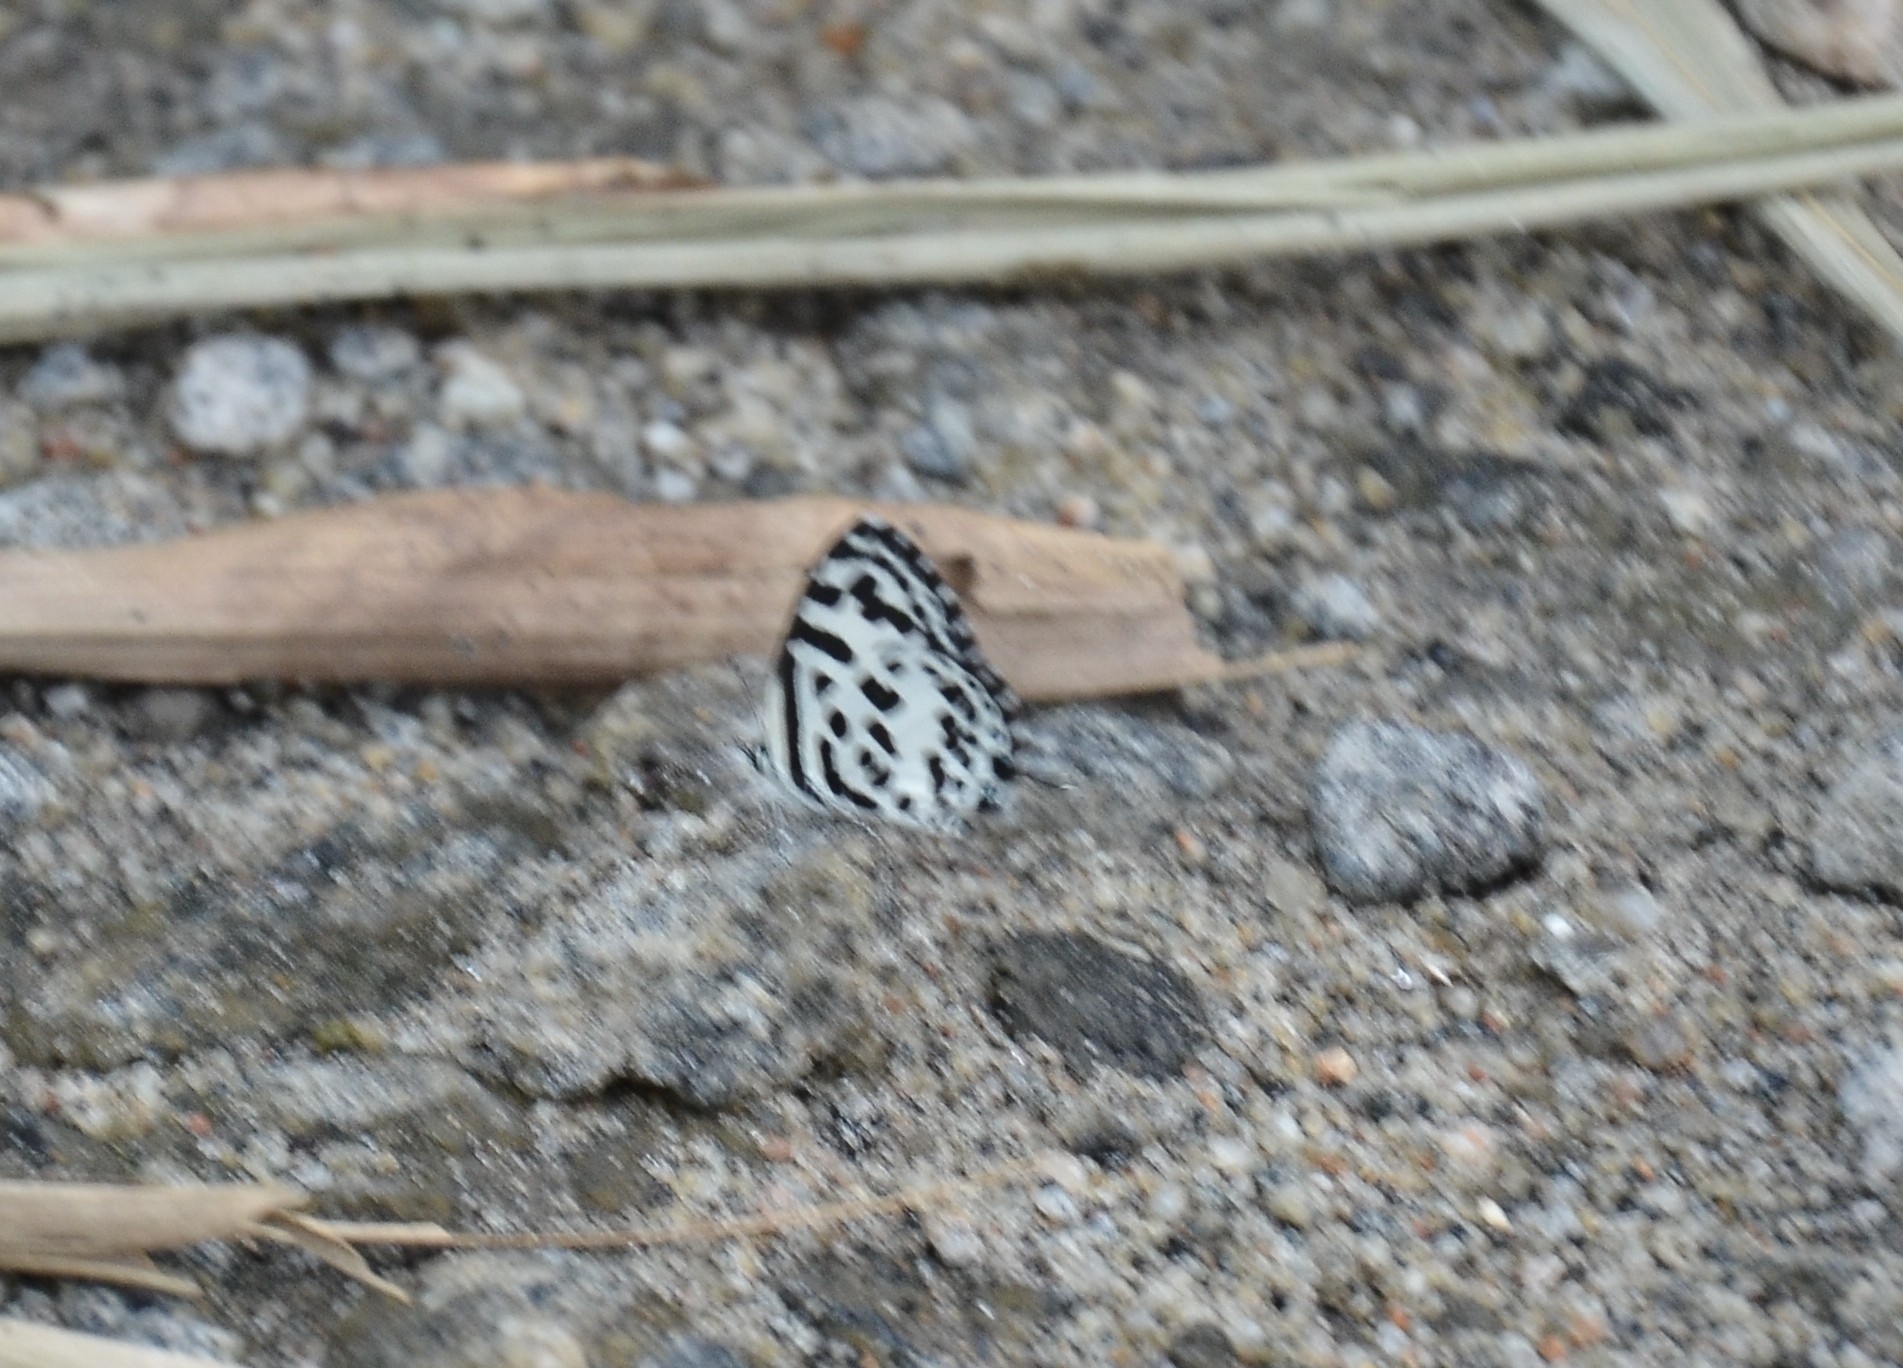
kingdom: Animalia
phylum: Arthropoda
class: Insecta
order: Lepidoptera
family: Lycaenidae
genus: Castalius
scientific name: Castalius rosimon
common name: Common pierrot
